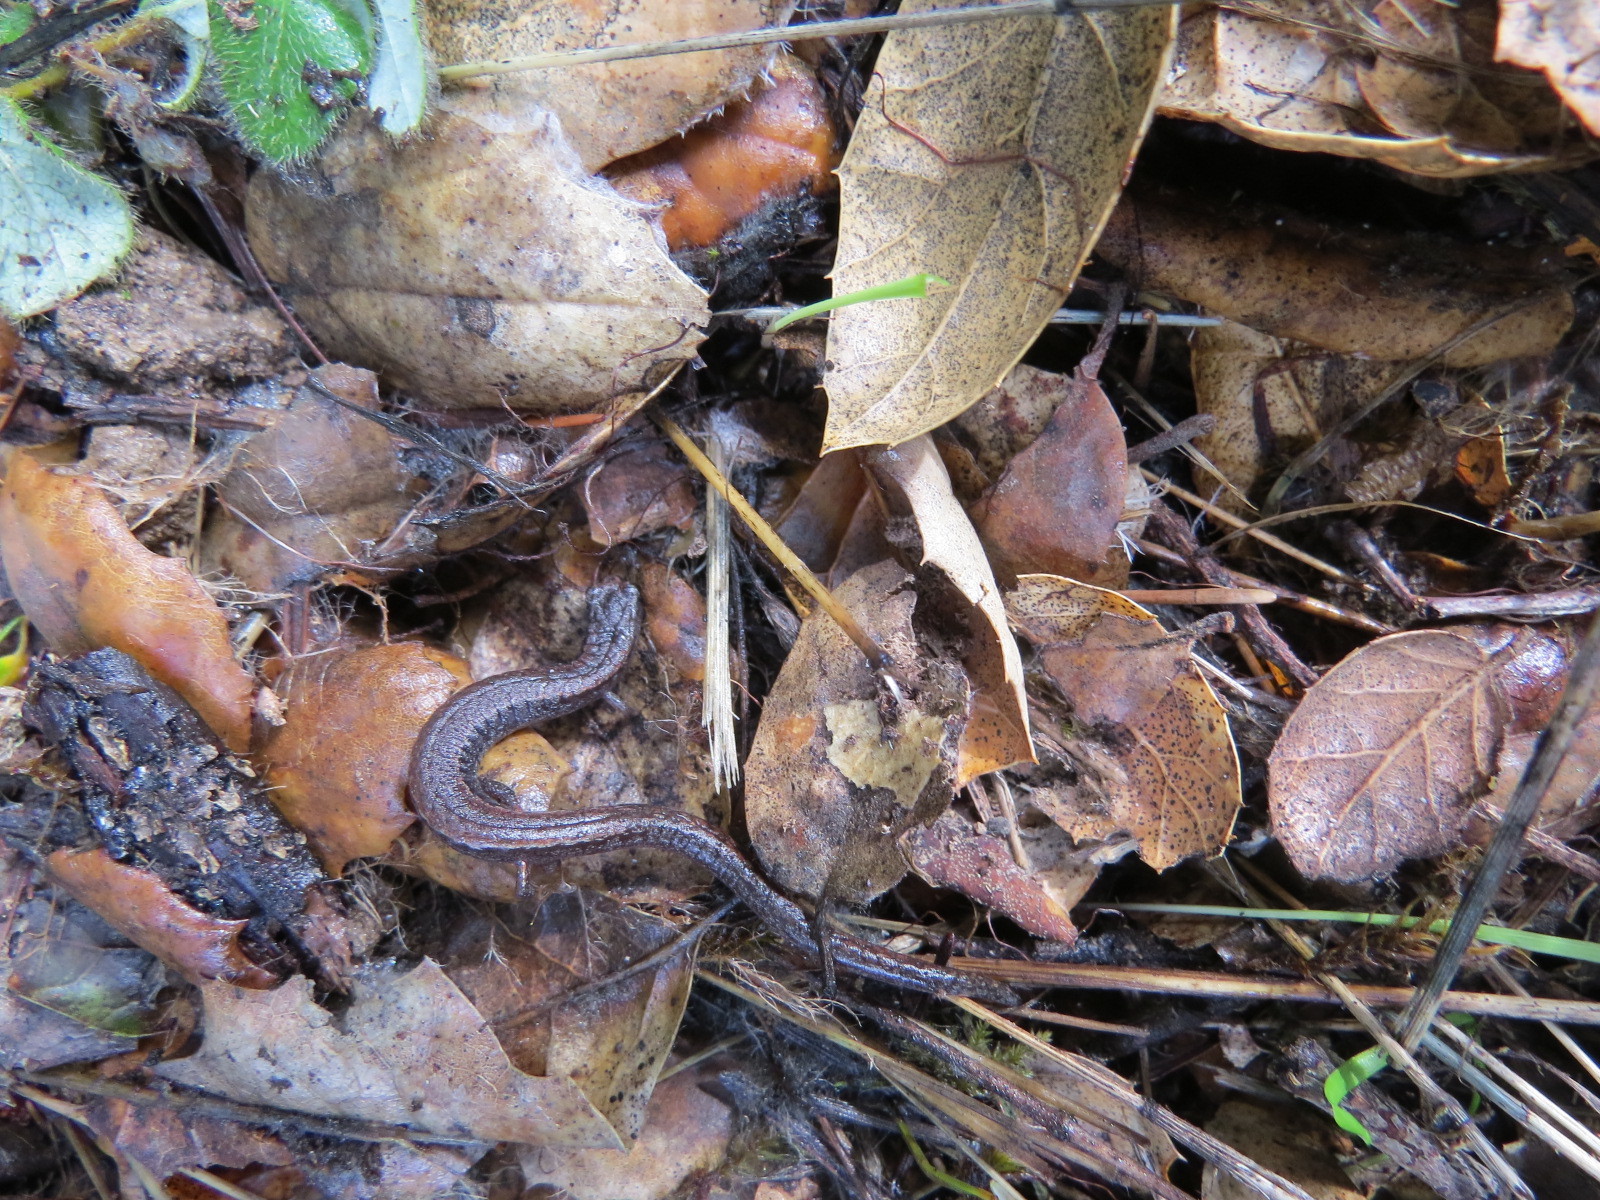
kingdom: Animalia
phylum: Chordata
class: Amphibia
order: Caudata
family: Plethodontidae
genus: Batrachoseps
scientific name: Batrachoseps attenuatus
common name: California slender salamander
